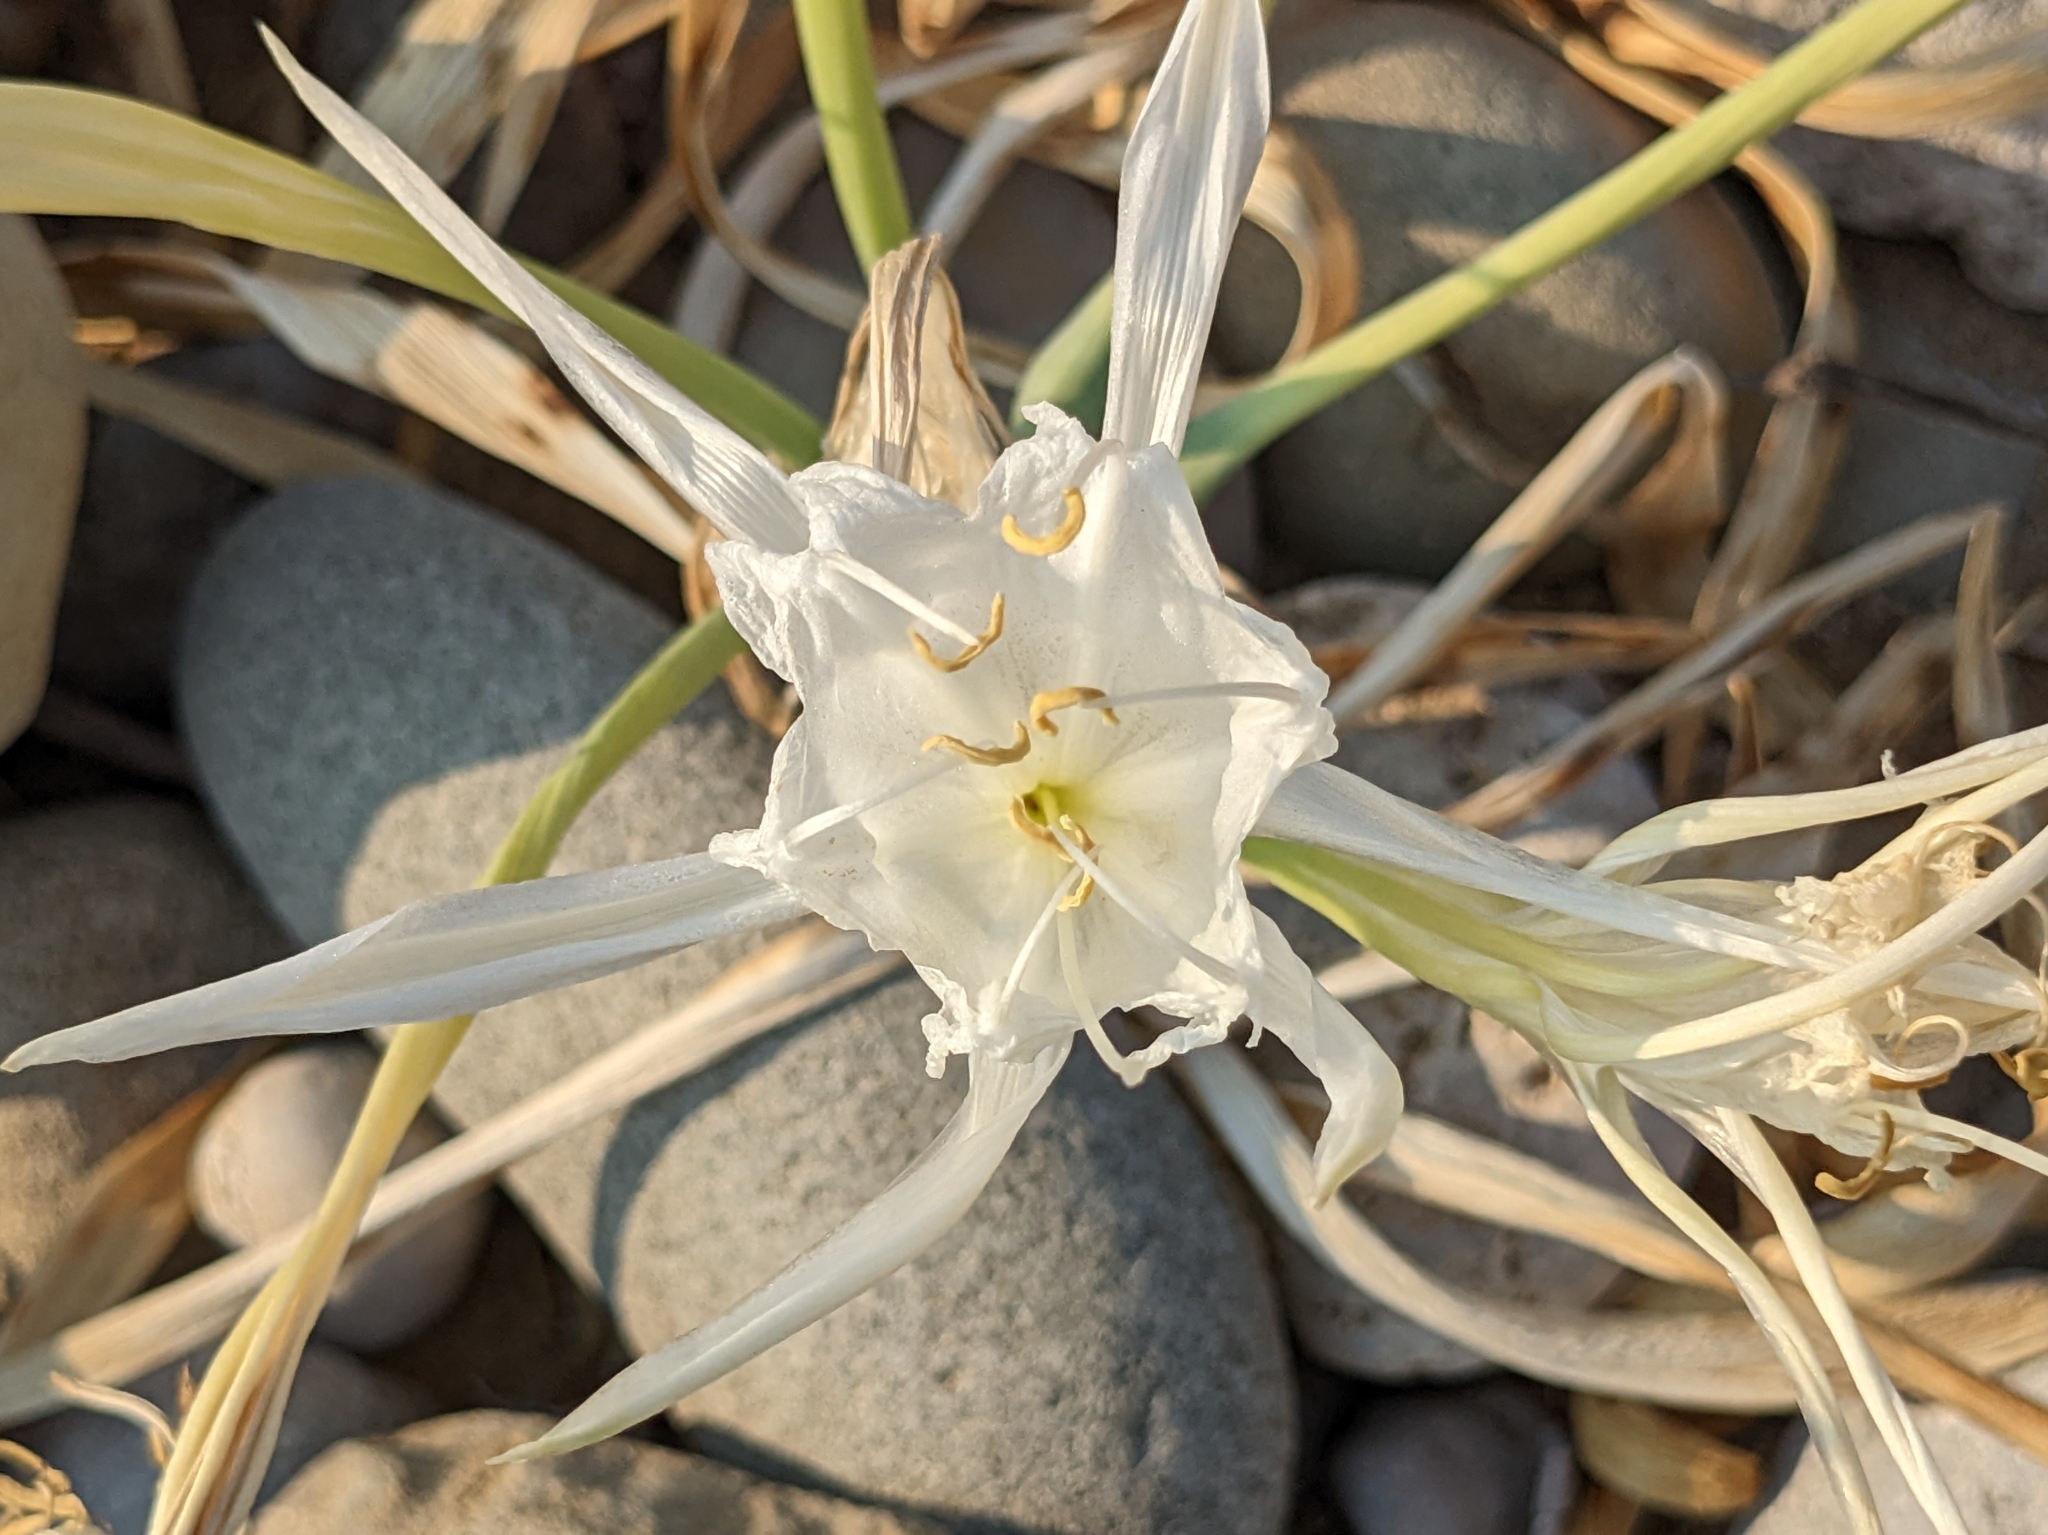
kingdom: Plantae
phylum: Tracheophyta
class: Liliopsida
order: Asparagales
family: Amaryllidaceae
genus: Pancratium
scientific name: Pancratium maritimum
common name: Sea-daffodil
